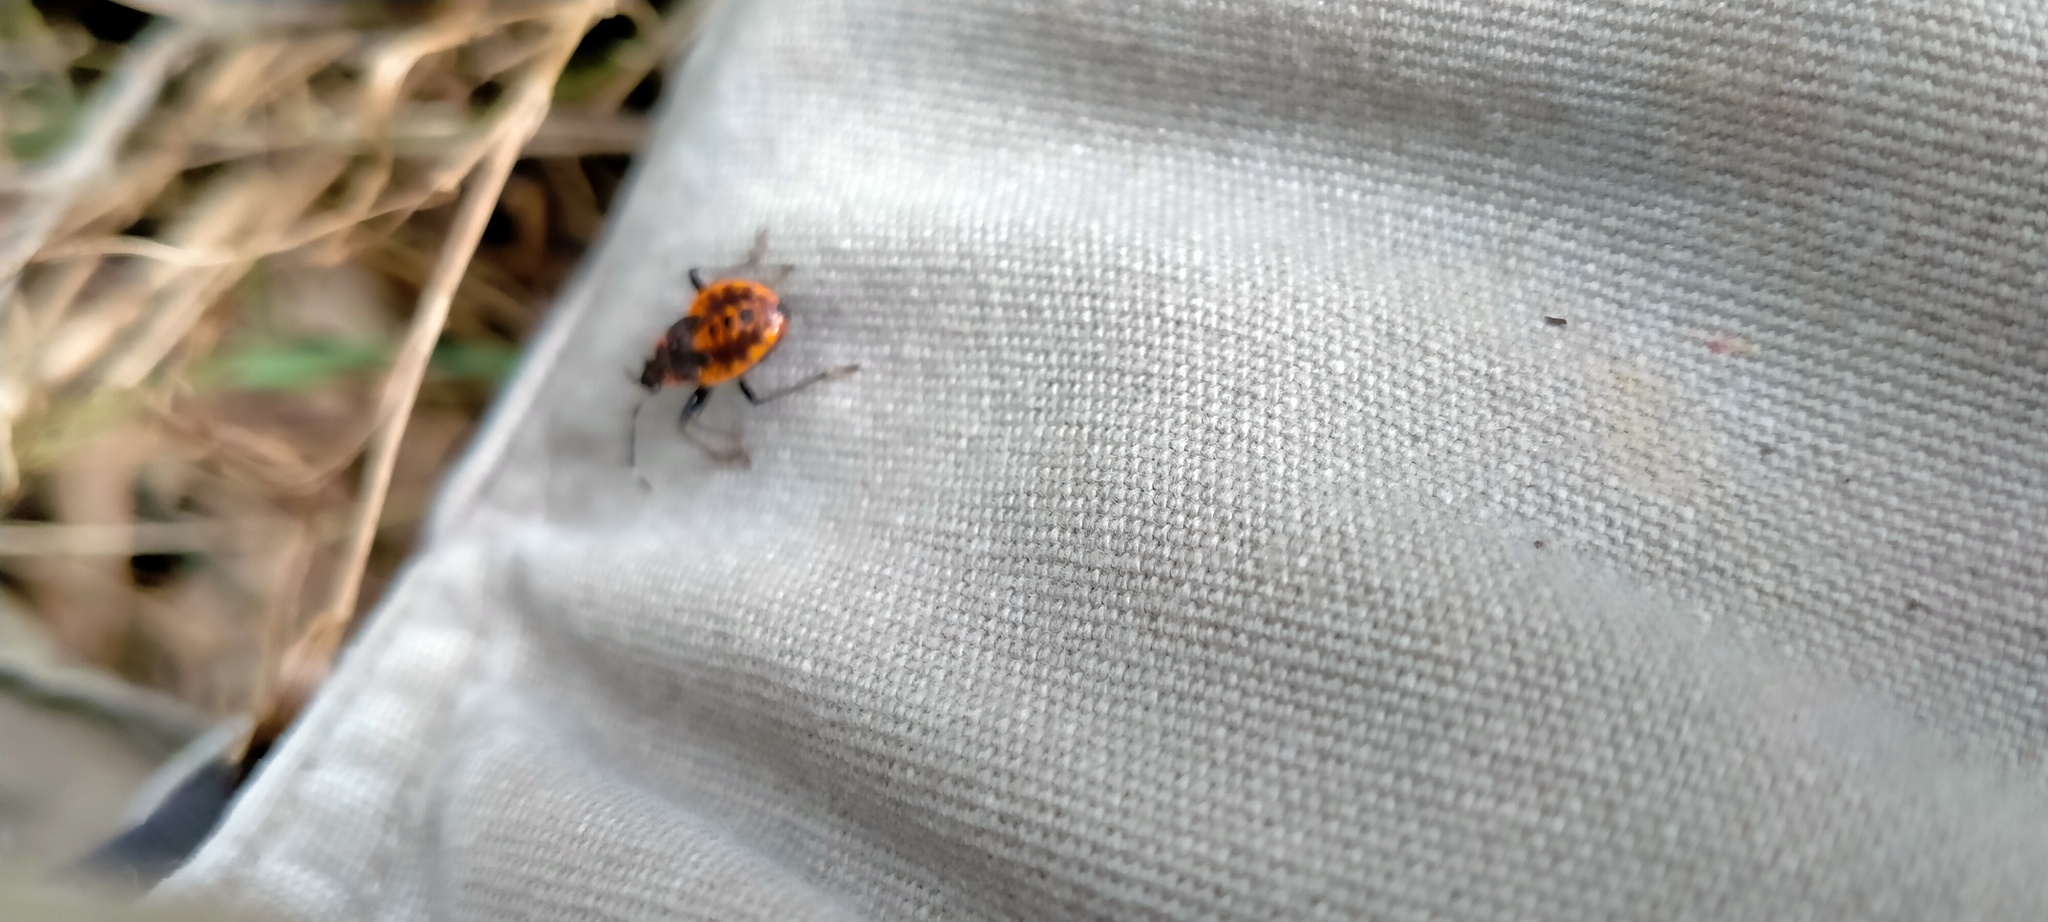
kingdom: Animalia
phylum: Arthropoda
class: Insecta
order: Hemiptera
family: Pyrrhocoridae
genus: Dindymus
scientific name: Dindymus
